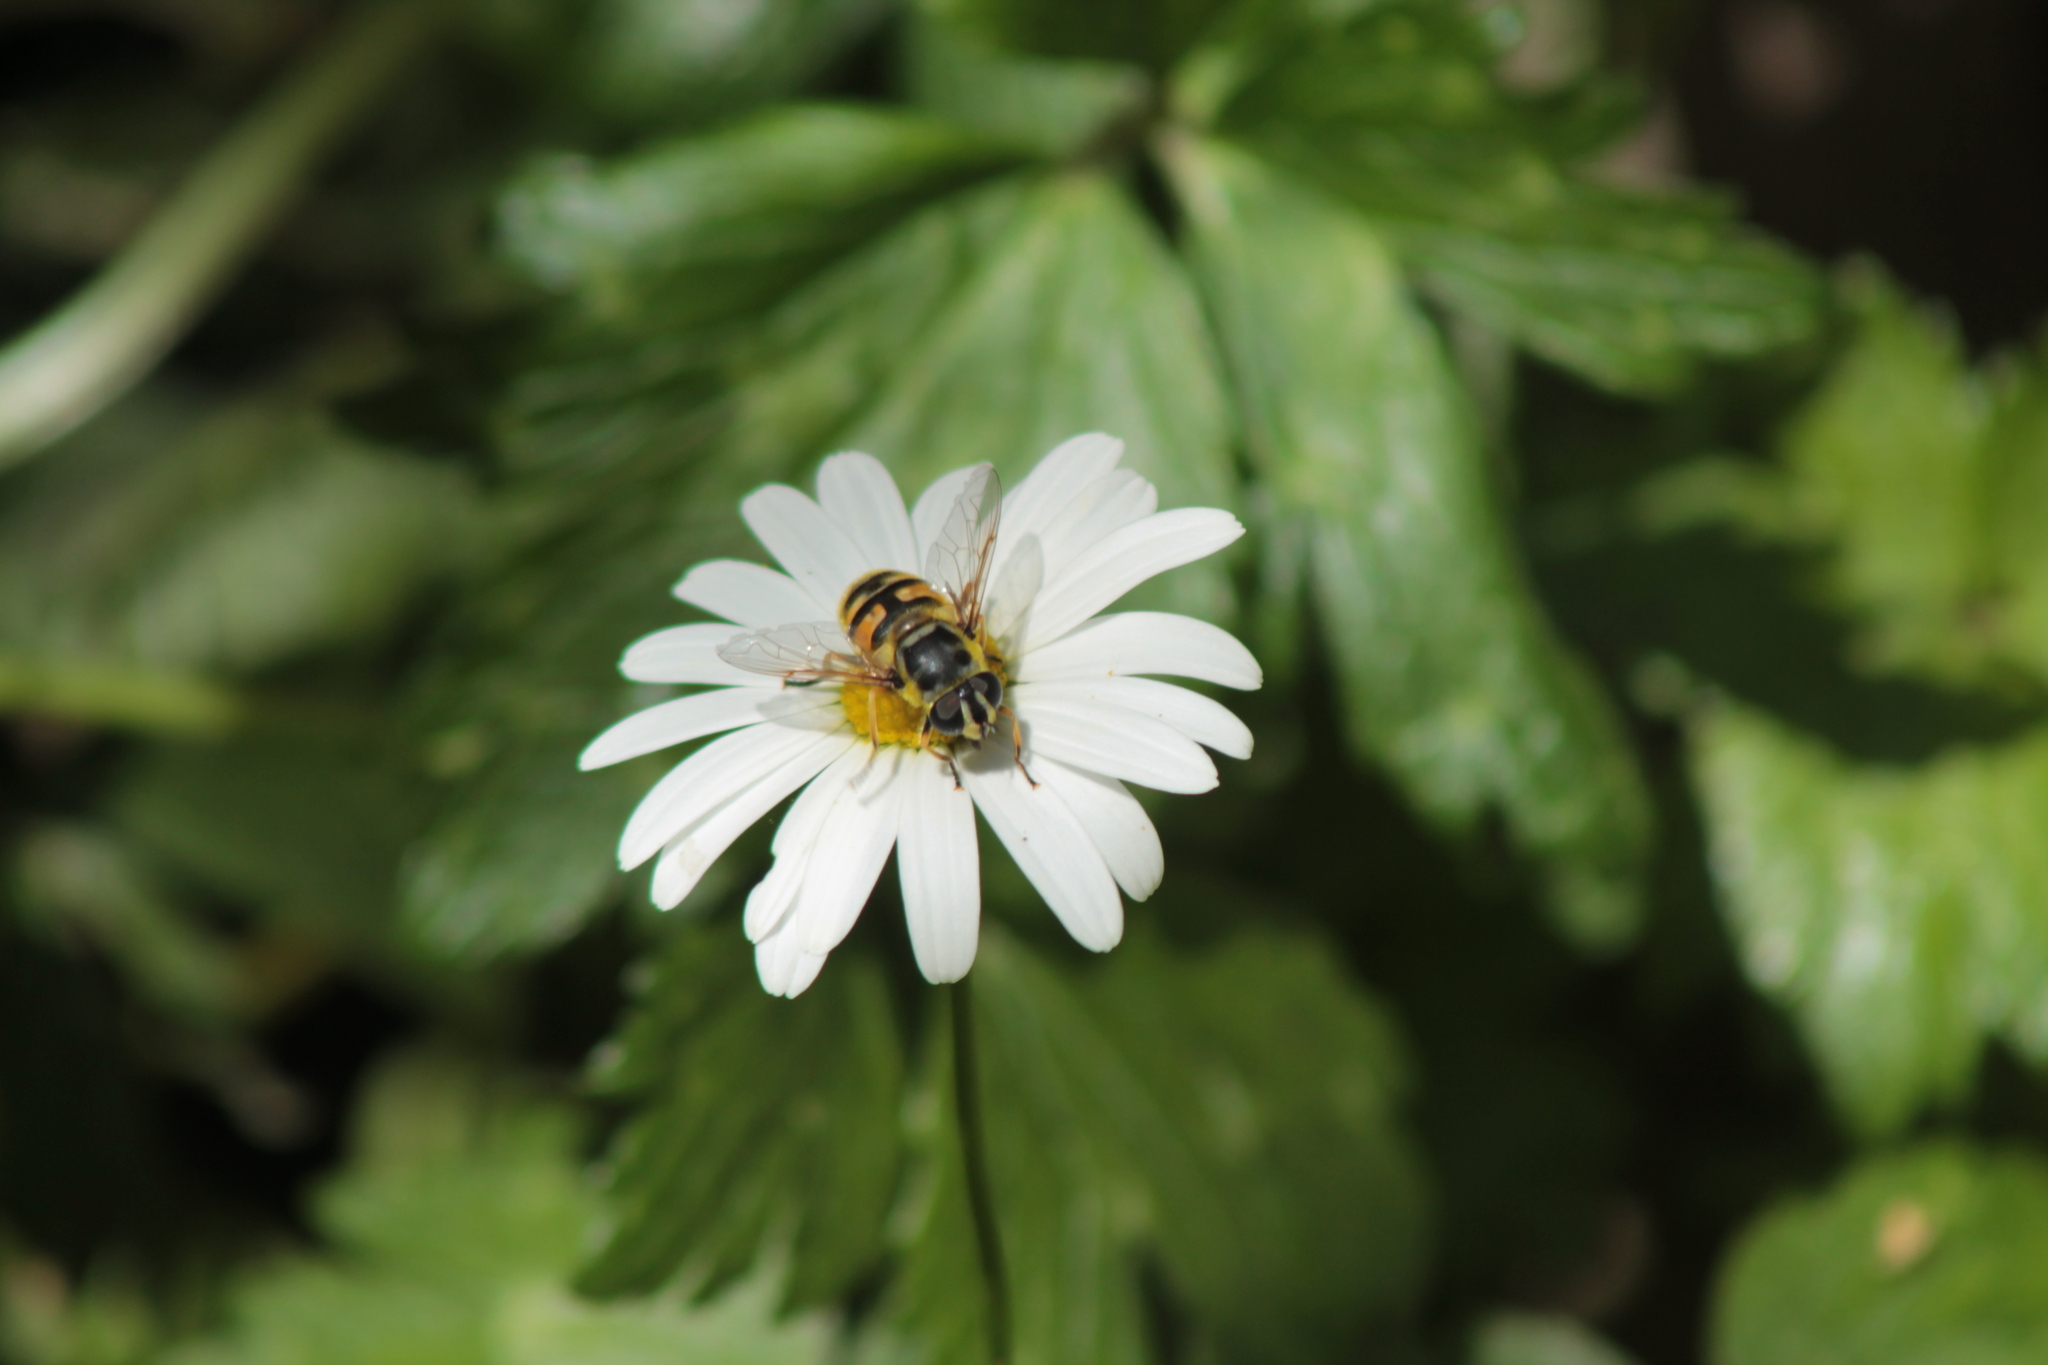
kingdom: Animalia
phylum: Arthropoda
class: Insecta
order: Diptera
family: Syrphidae
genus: Myathropa
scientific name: Myathropa florea
